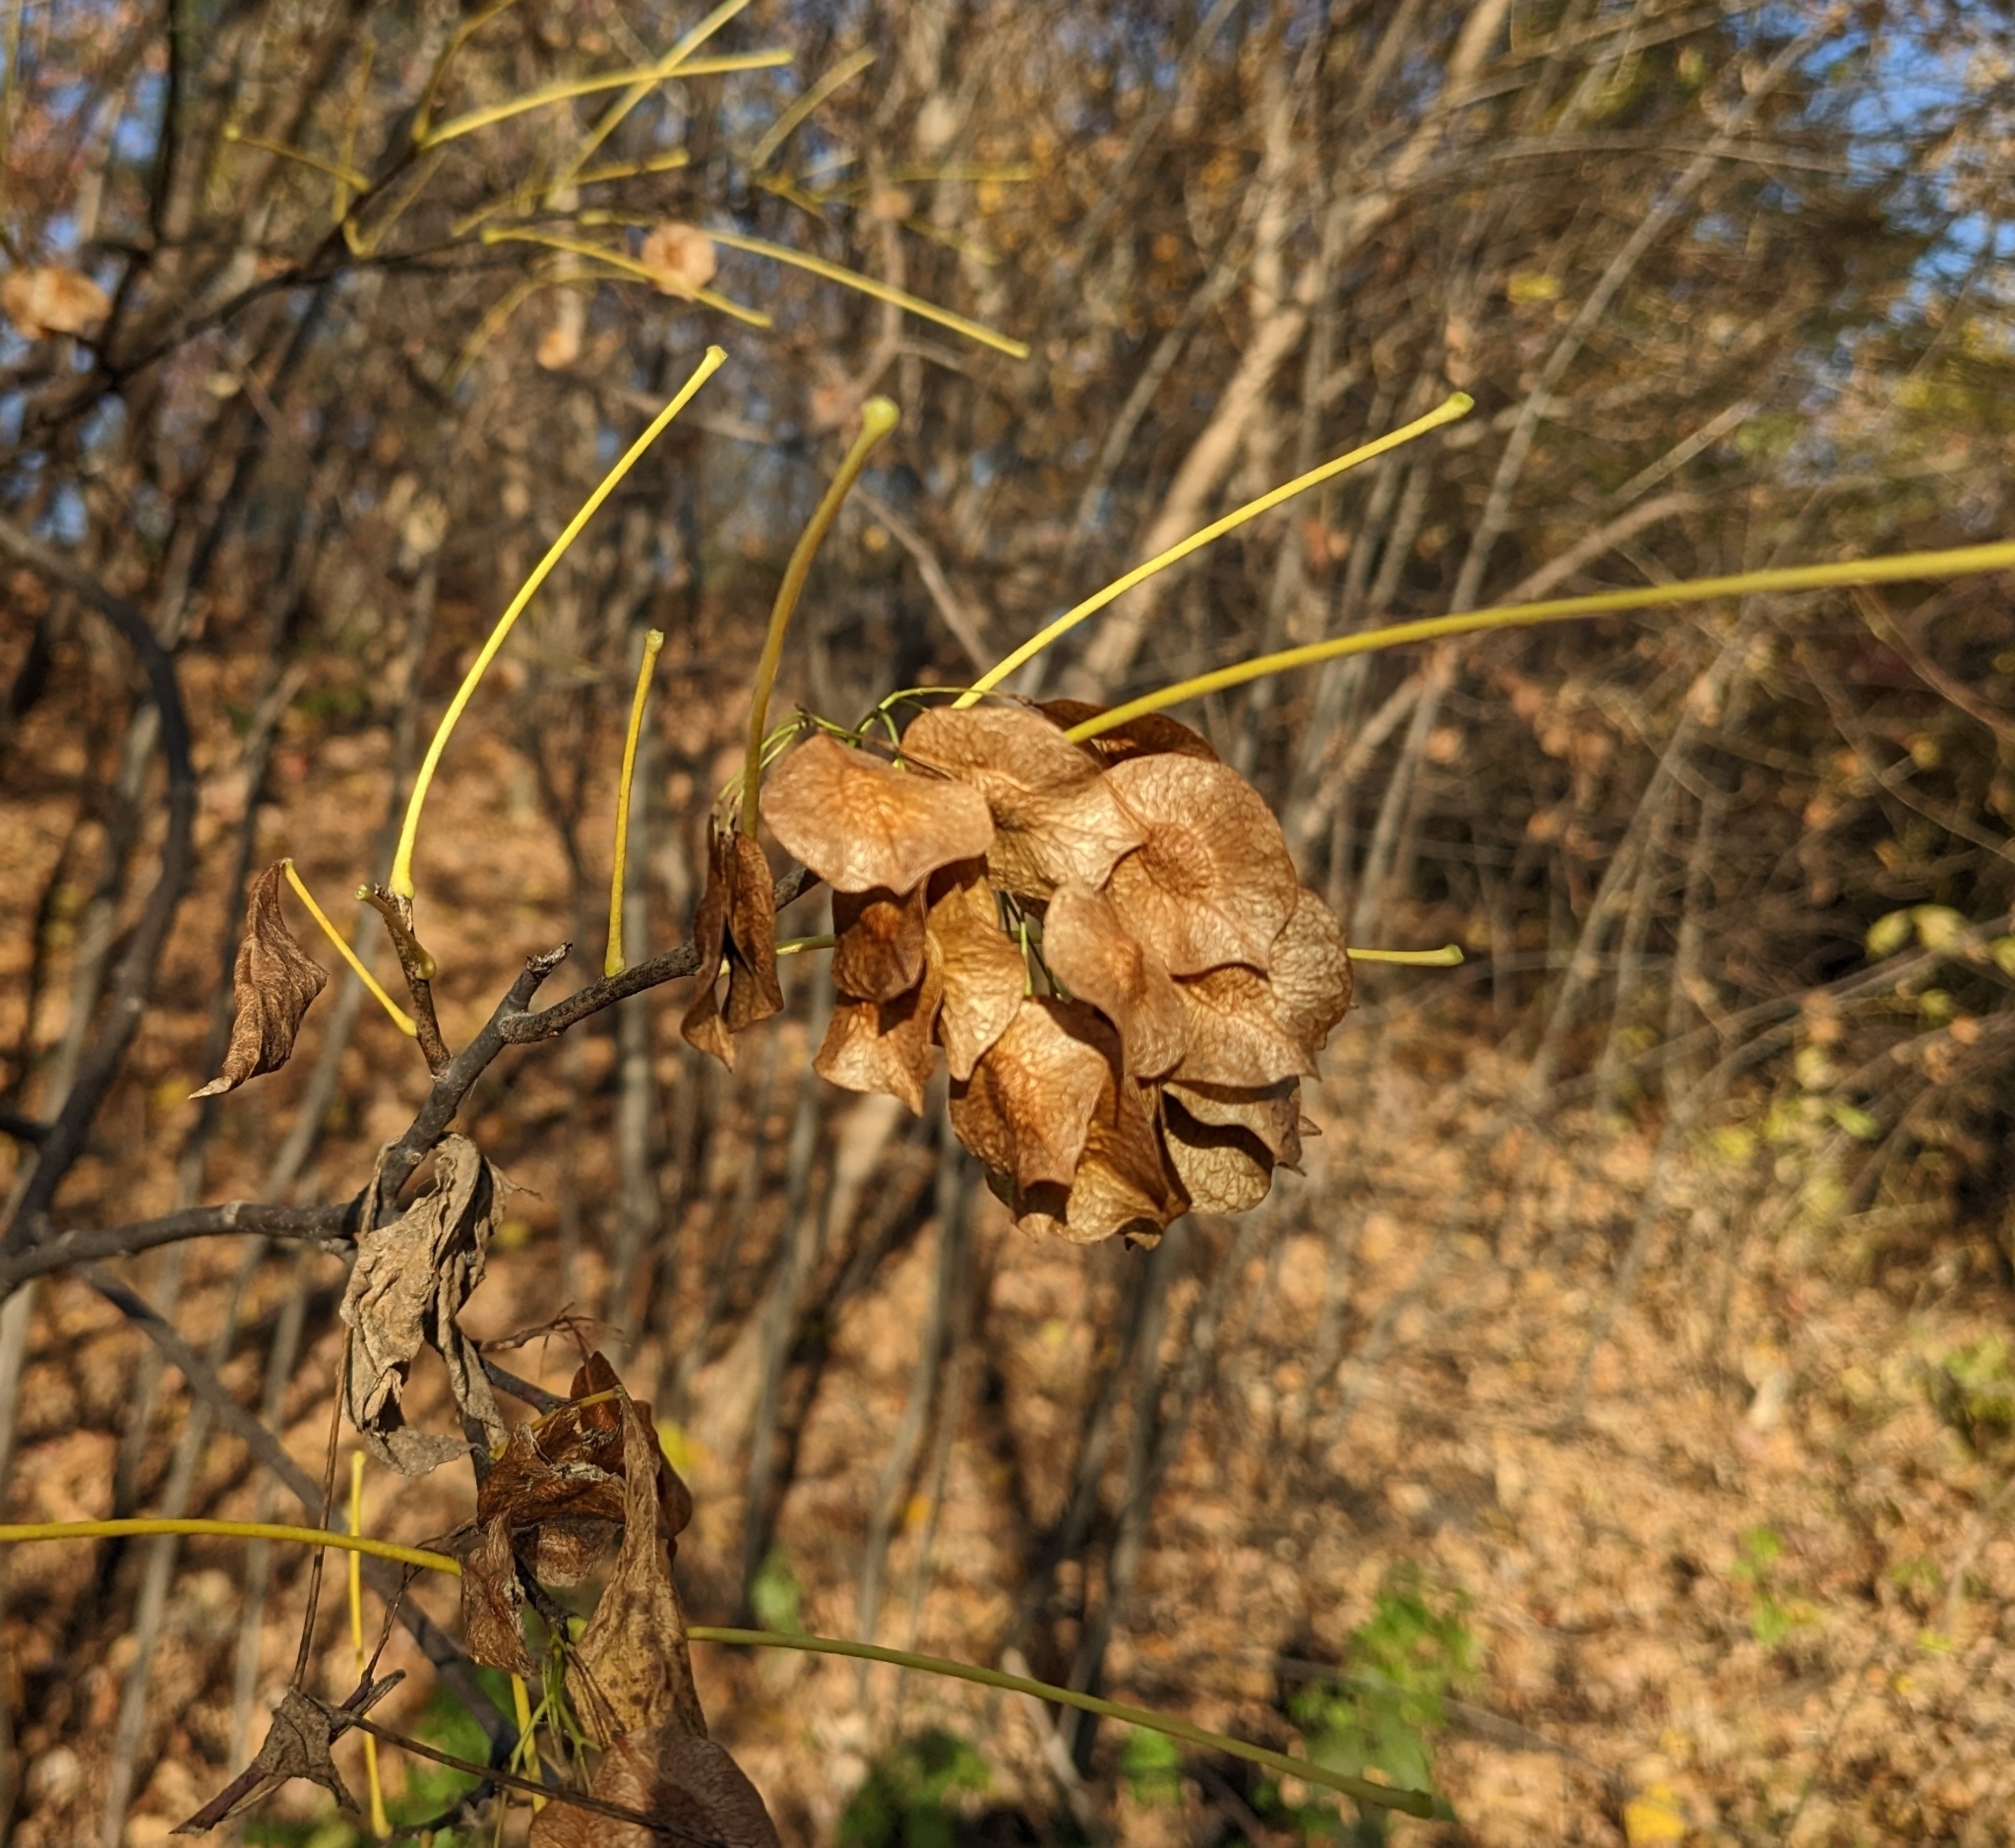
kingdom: Plantae
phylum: Tracheophyta
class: Magnoliopsida
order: Sapindales
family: Rutaceae
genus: Ptelea
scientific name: Ptelea trifoliata
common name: Common hop-tree
